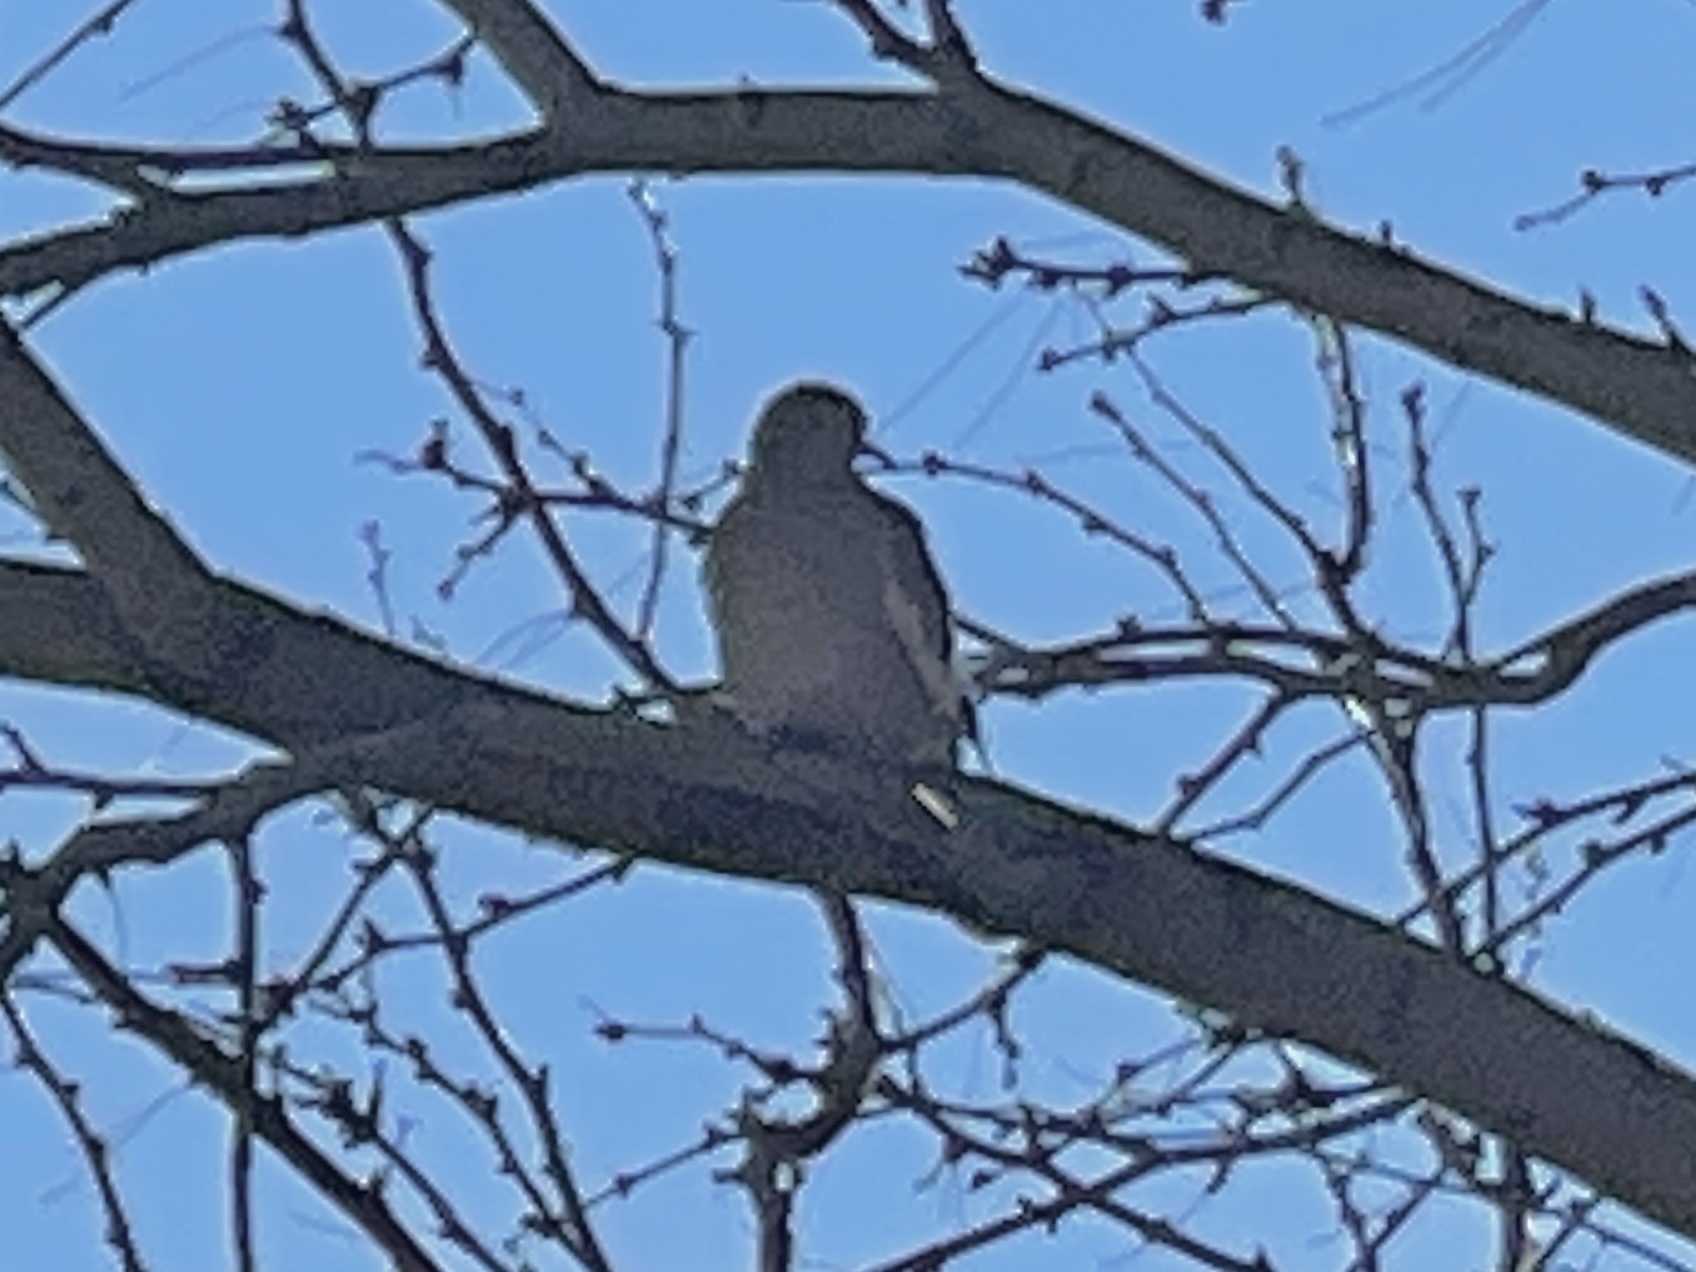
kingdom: Animalia
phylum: Chordata
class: Aves
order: Columbiformes
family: Columbidae
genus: Zenaida
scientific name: Zenaida asiatica
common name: White-winged dove
